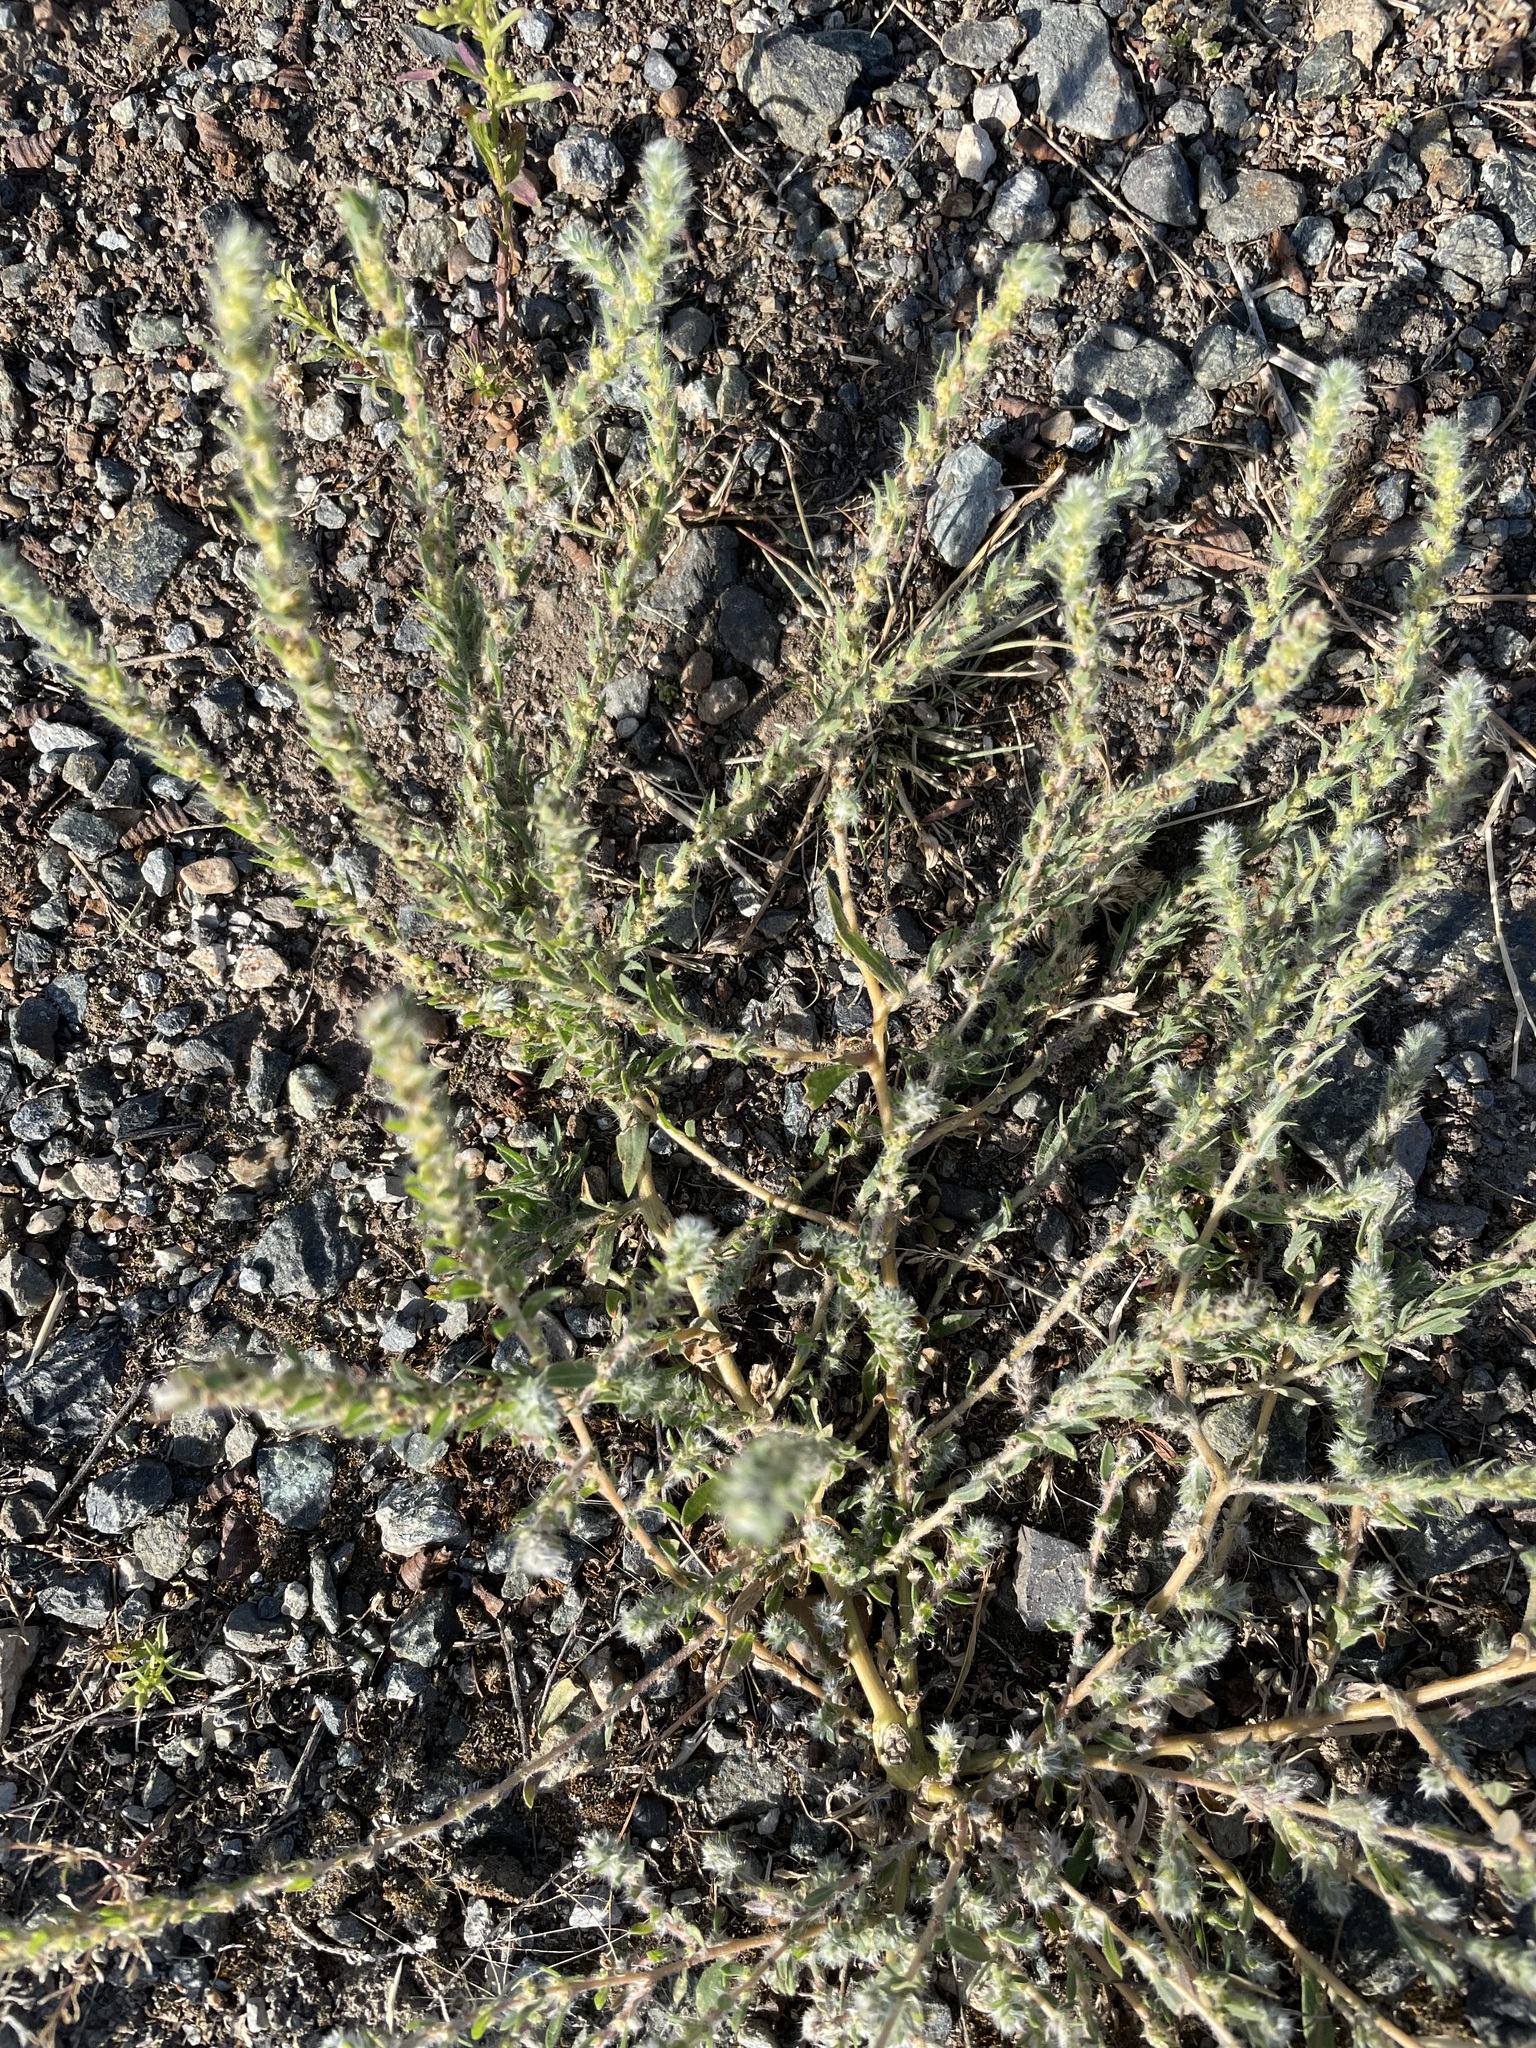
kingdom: Plantae
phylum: Tracheophyta
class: Magnoliopsida
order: Caryophyllales
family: Amaranthaceae
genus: Bassia
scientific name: Bassia scoparia
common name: Belvedere
